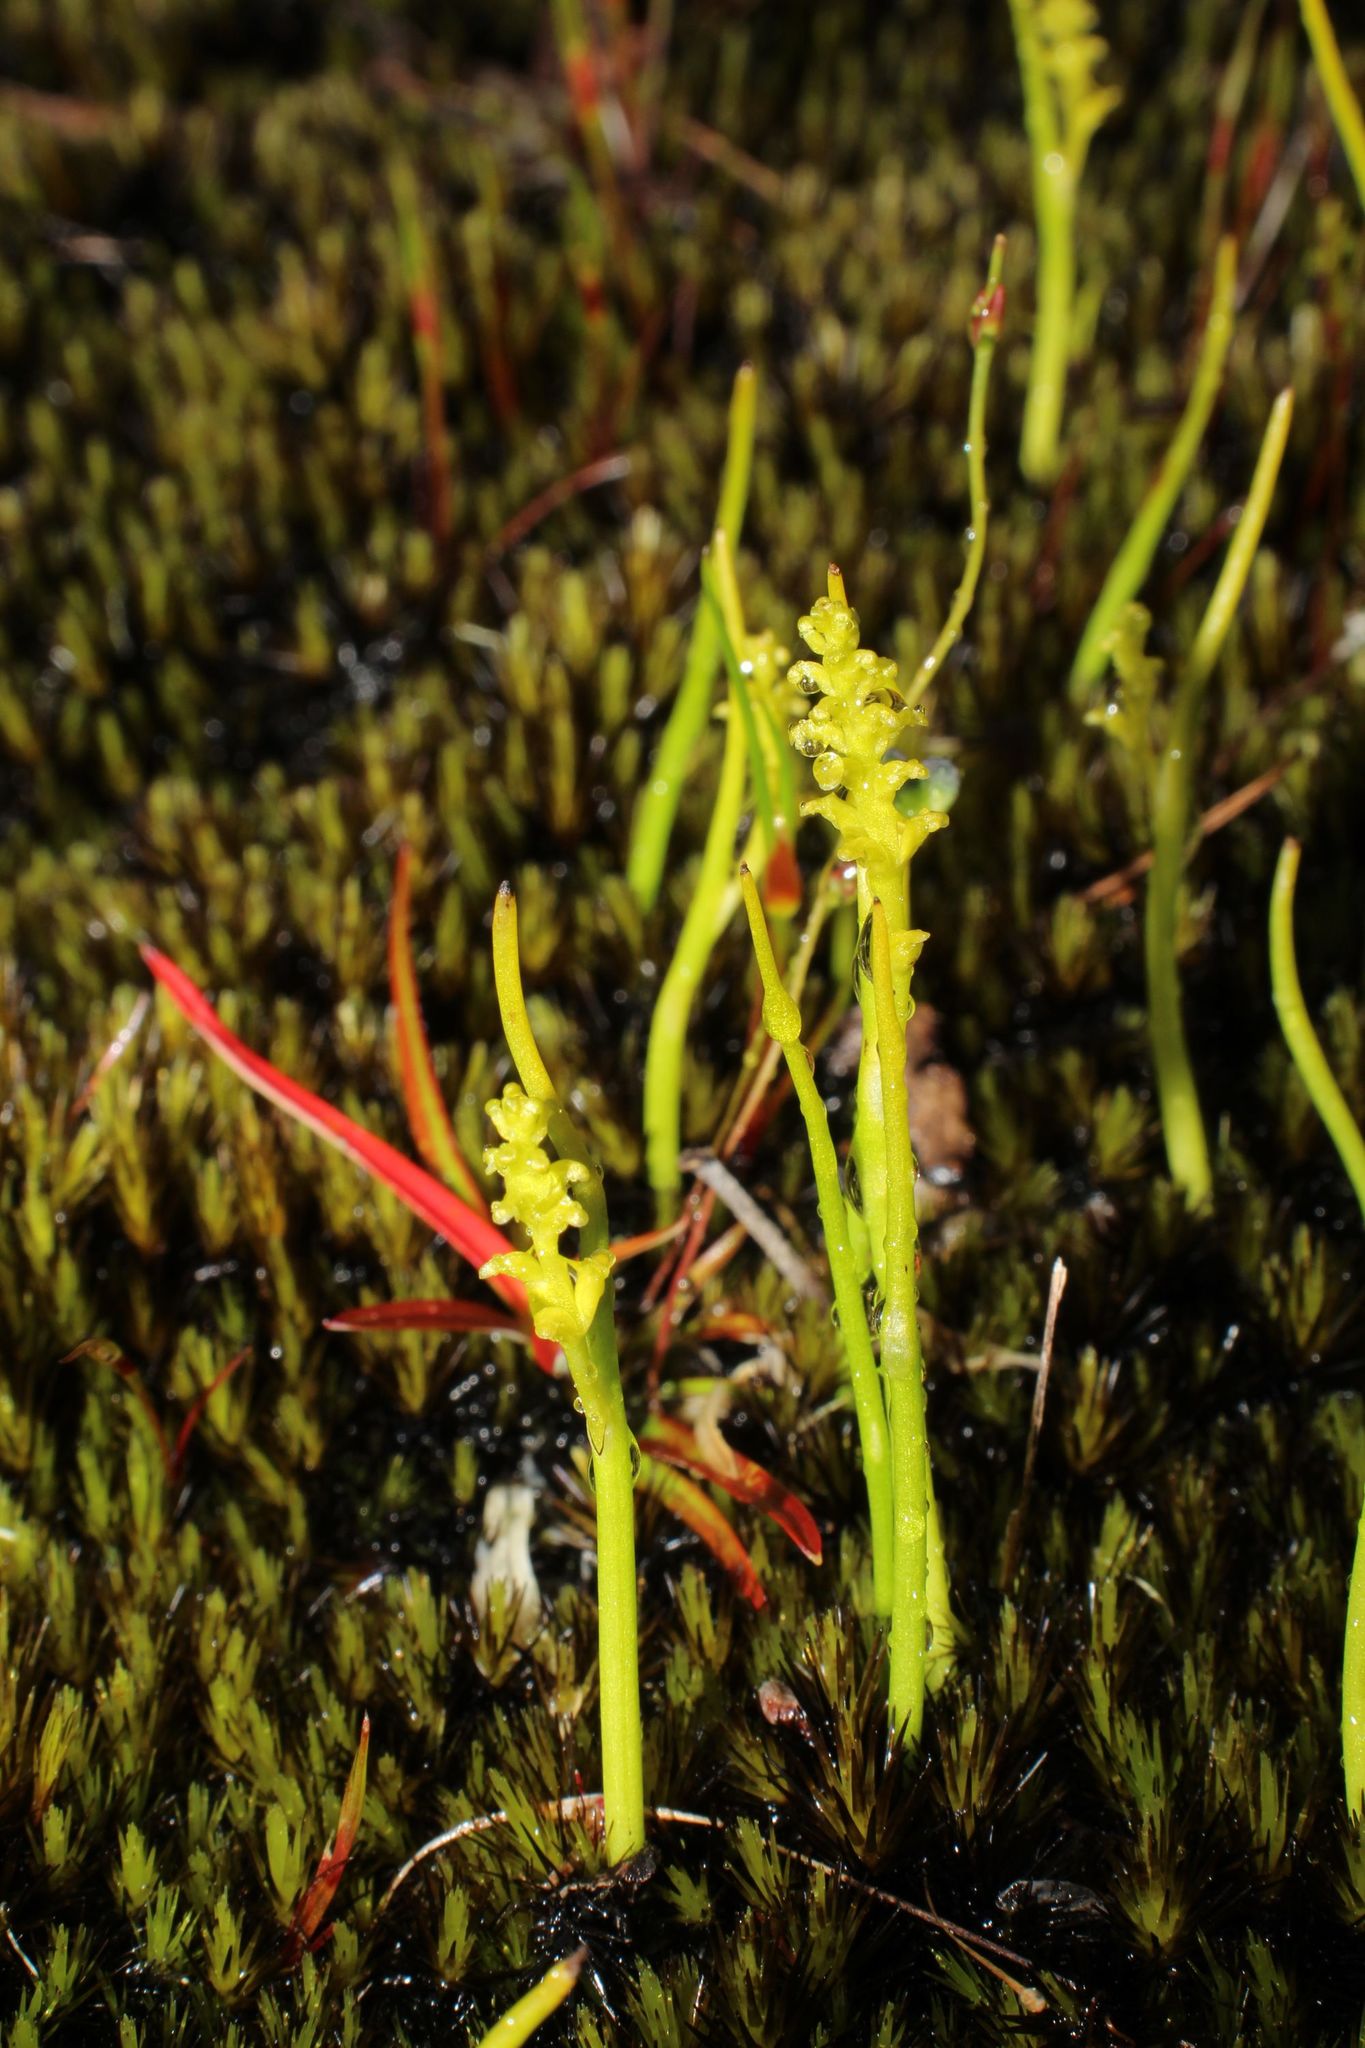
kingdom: Plantae
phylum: Tracheophyta
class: Liliopsida
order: Asparagales
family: Orchidaceae
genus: Microtis
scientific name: Microtis atrata
